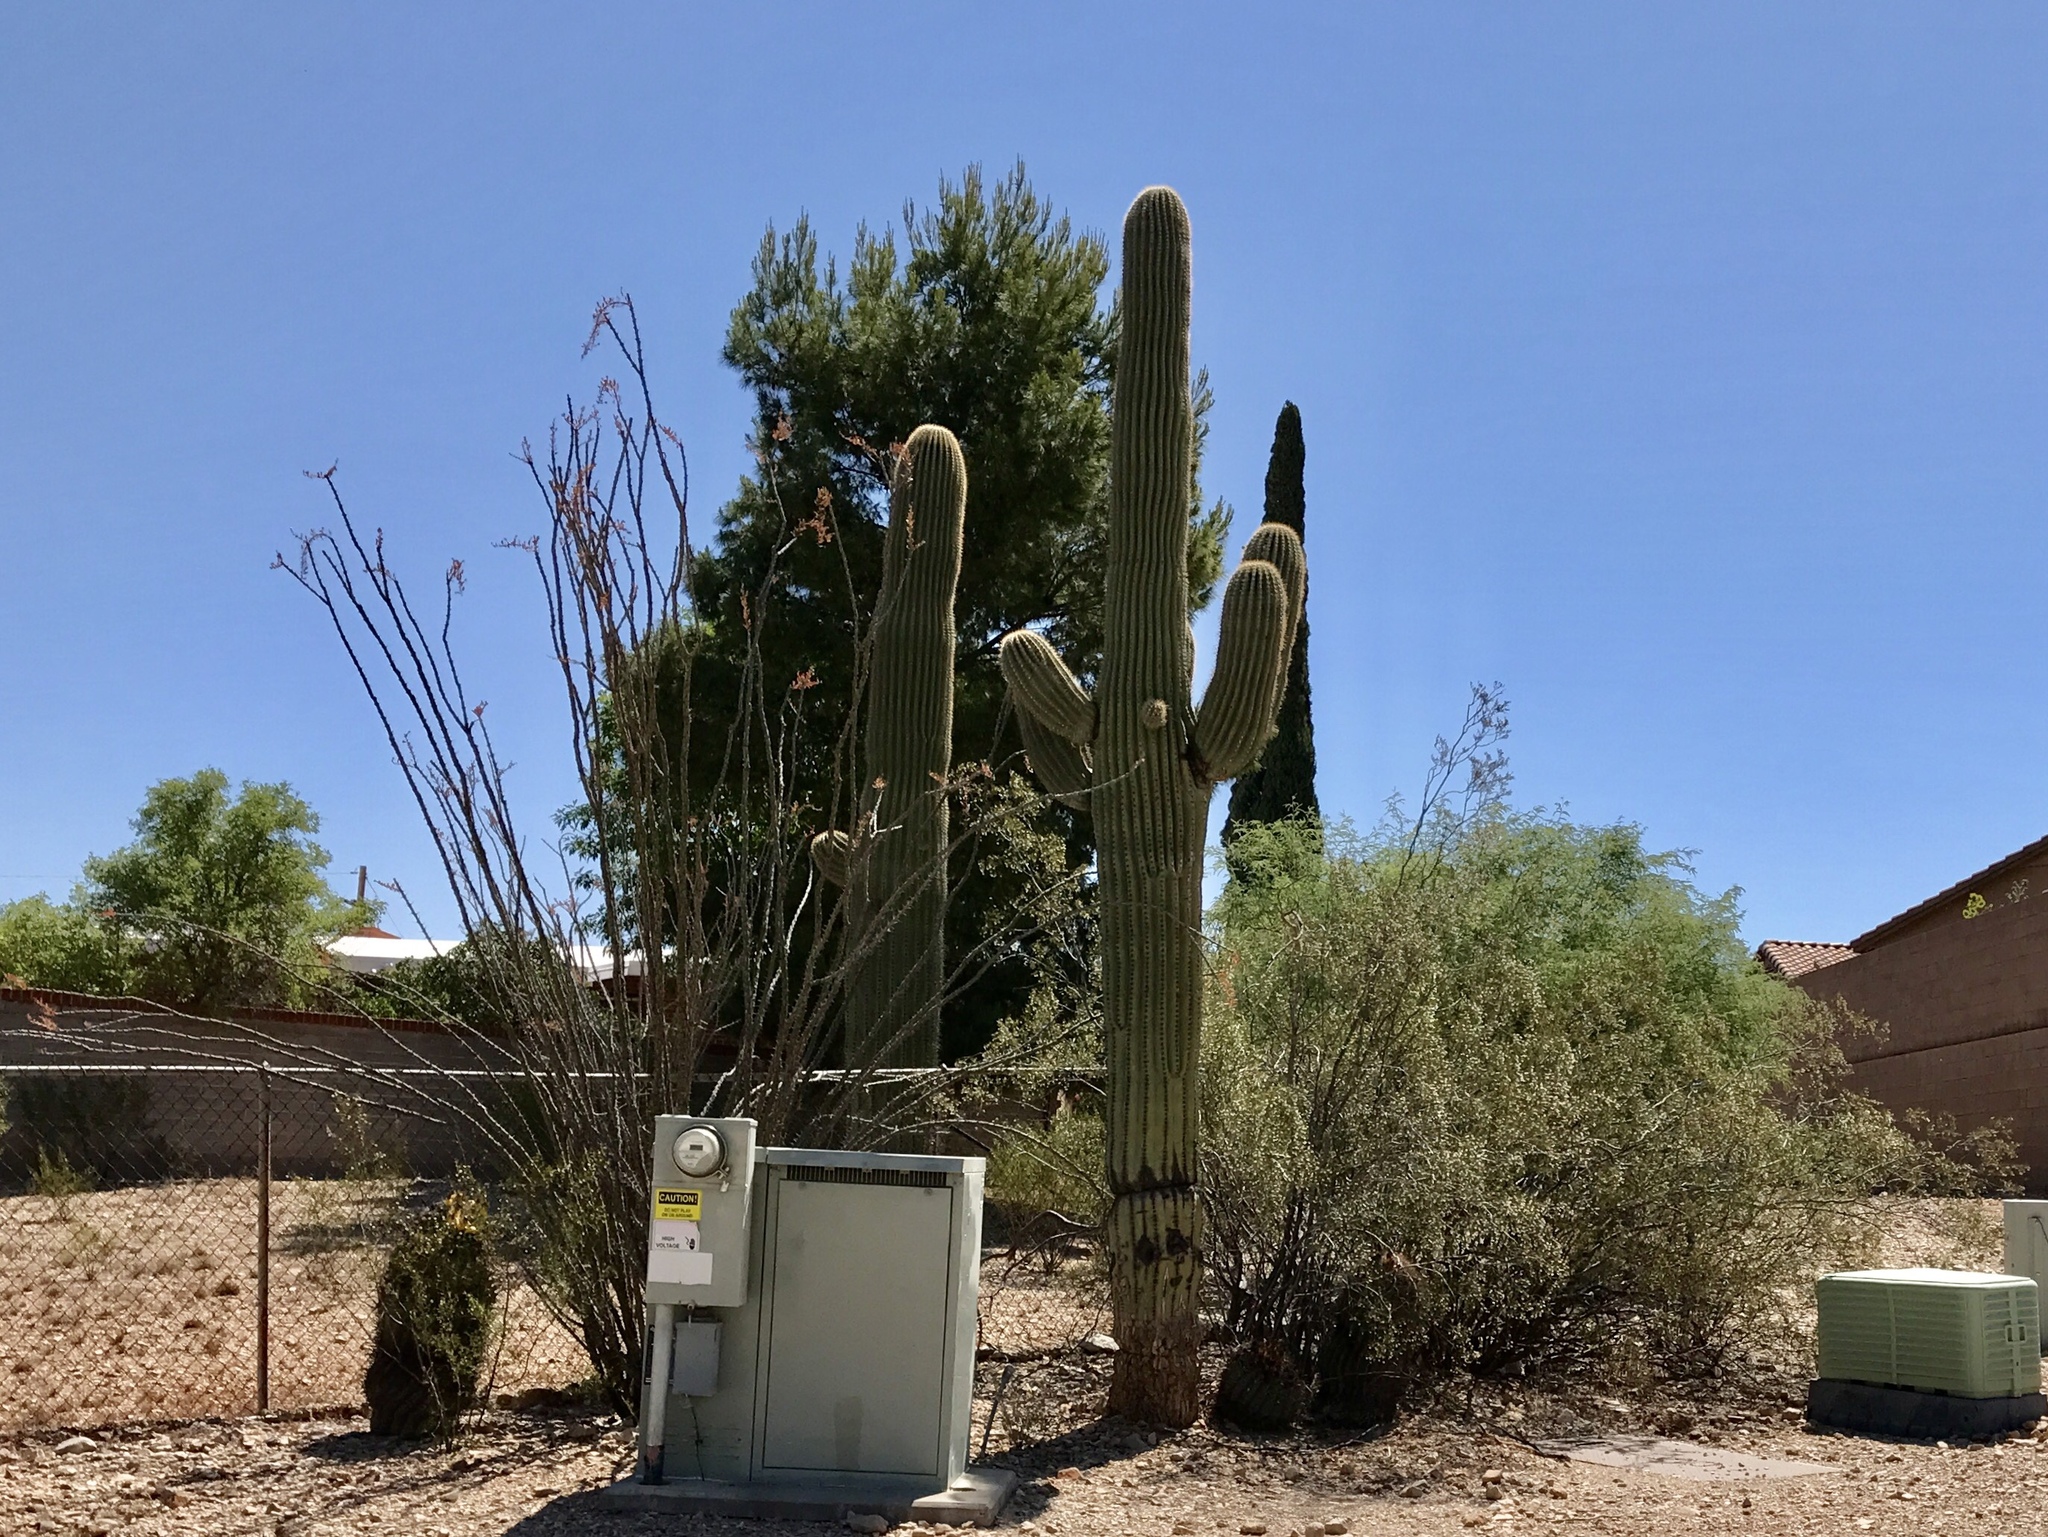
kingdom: Plantae
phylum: Tracheophyta
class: Magnoliopsida
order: Caryophyllales
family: Cactaceae
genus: Carnegiea
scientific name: Carnegiea gigantea
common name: Saguaro
